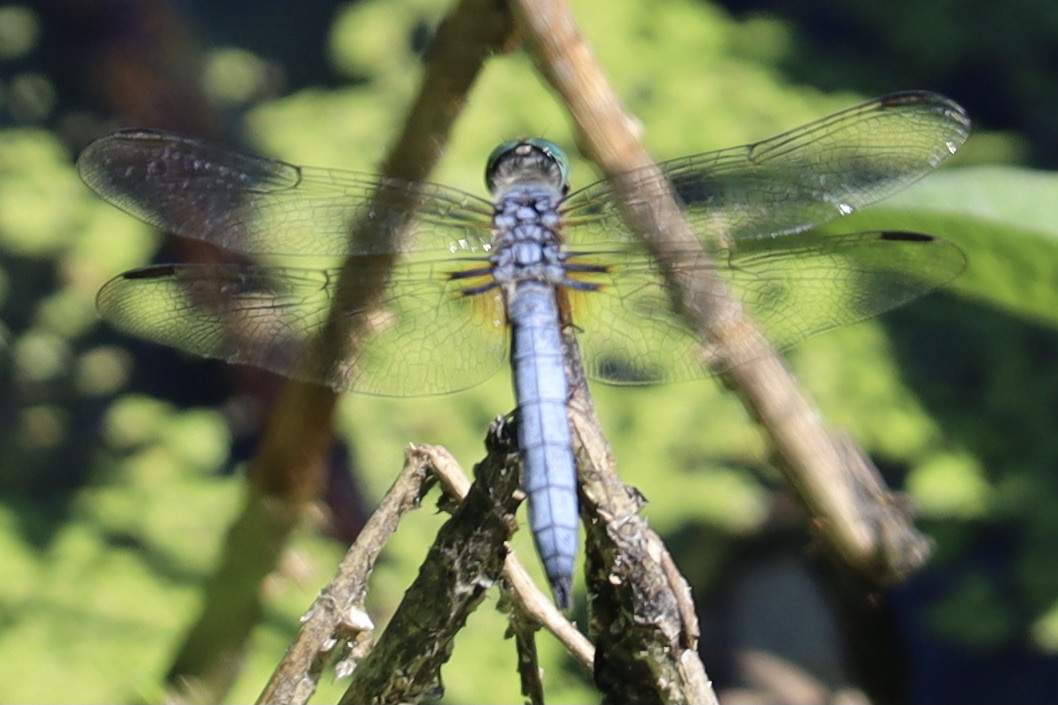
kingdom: Animalia
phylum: Arthropoda
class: Insecta
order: Odonata
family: Libellulidae
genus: Pachydiplax
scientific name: Pachydiplax longipennis
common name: Blue dasher
